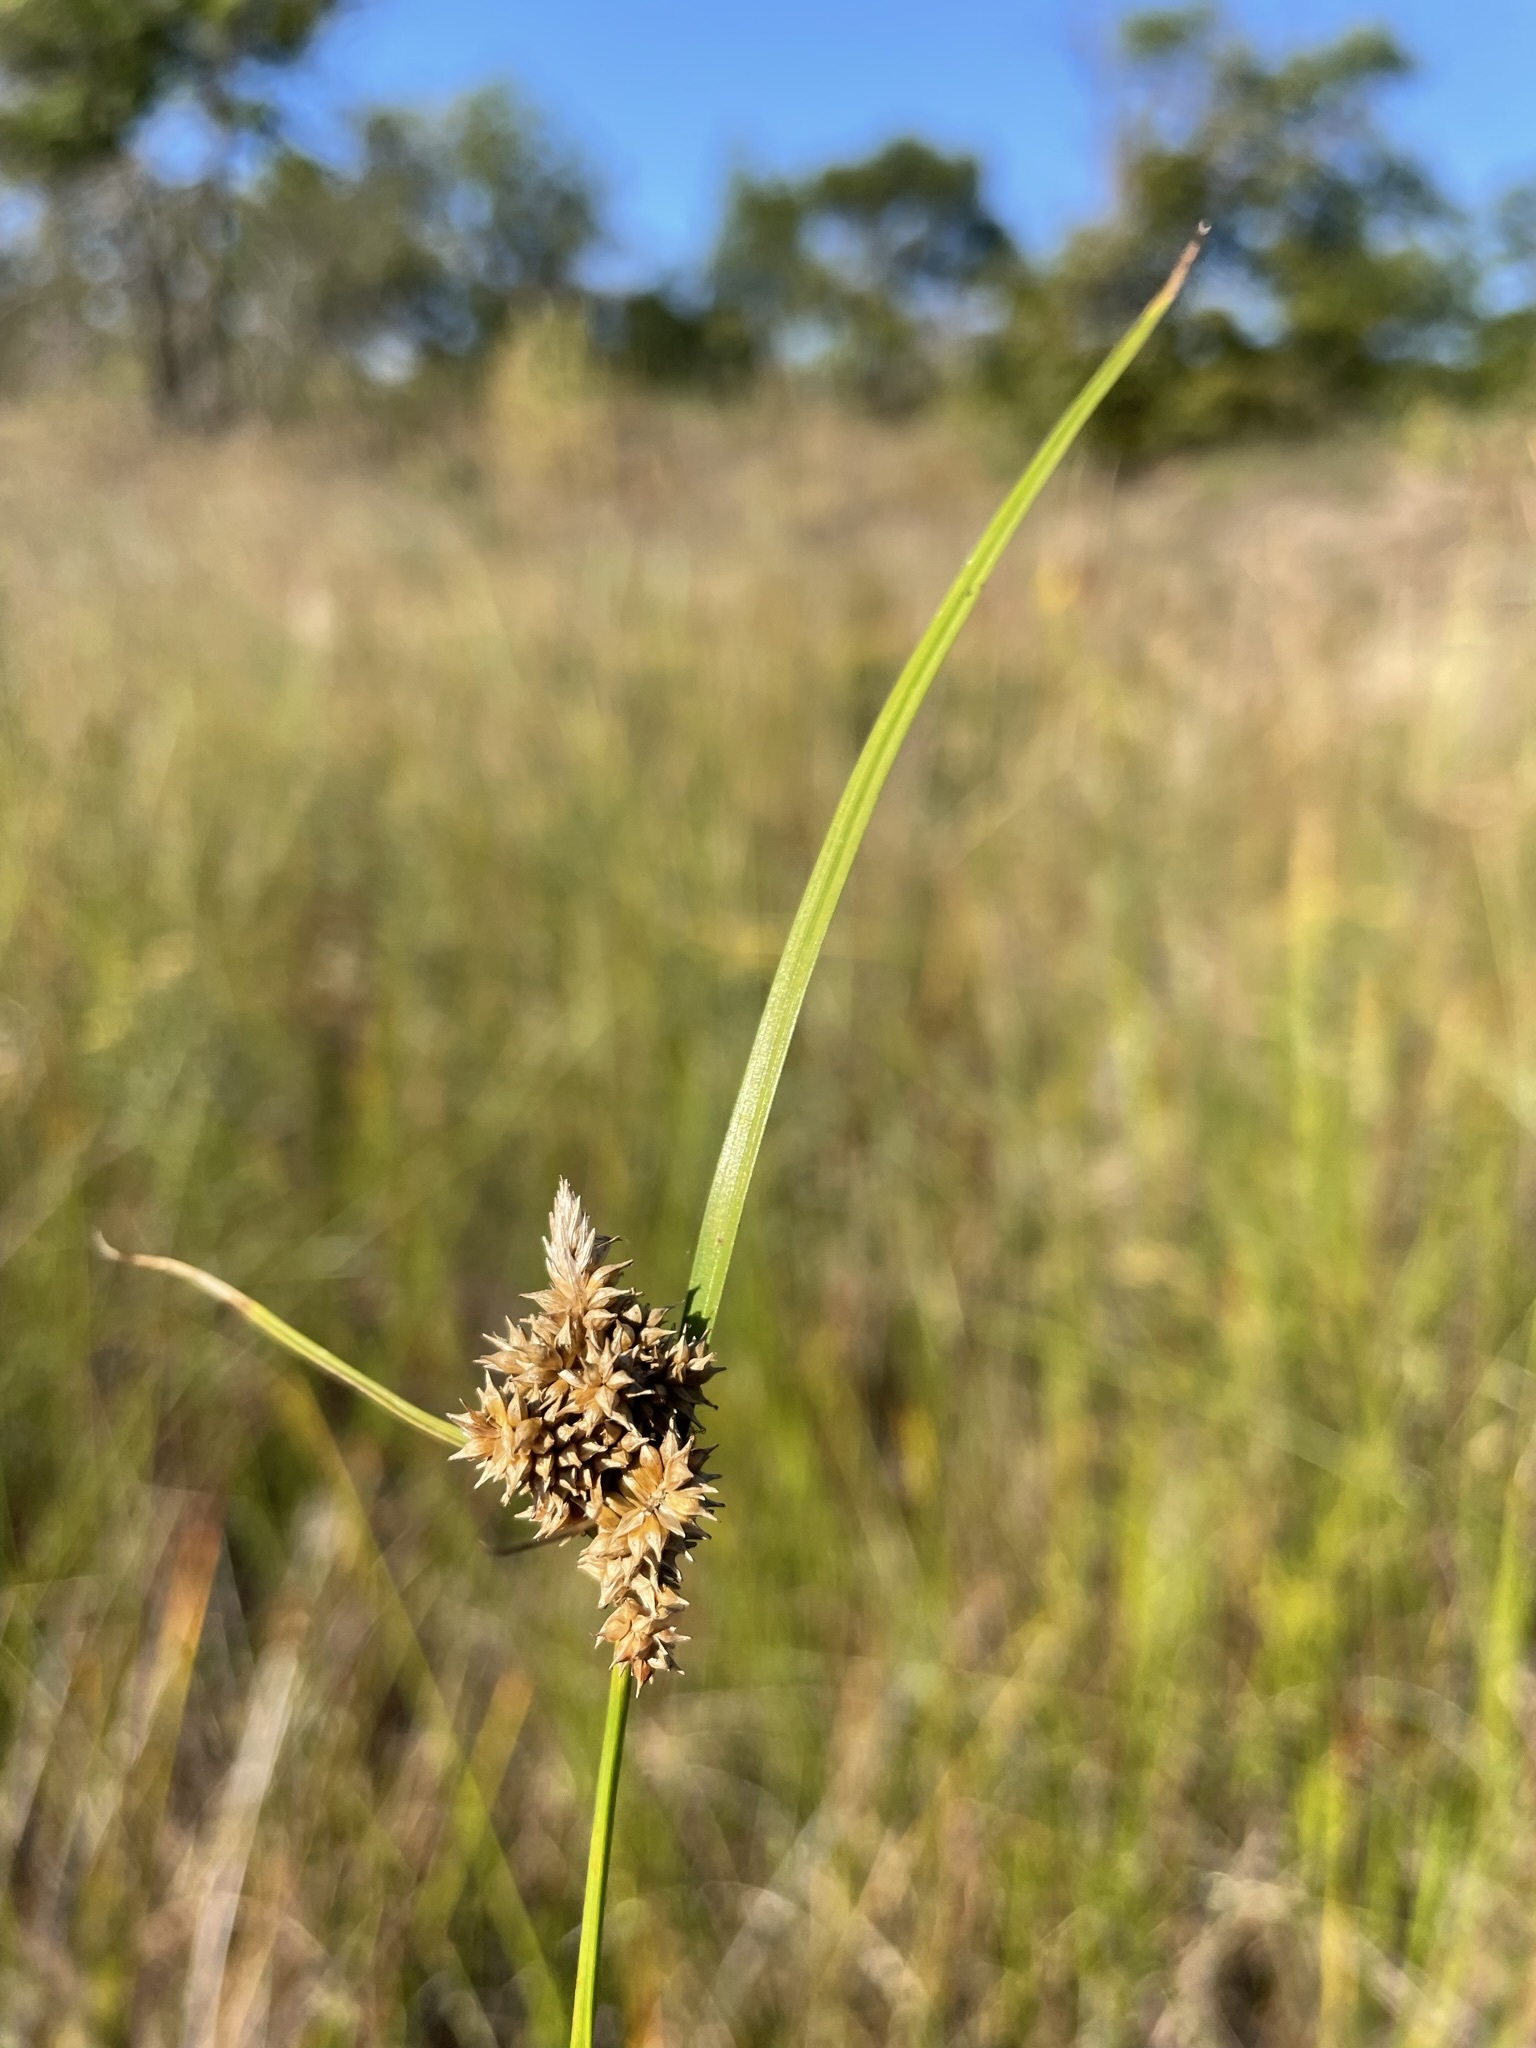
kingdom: Plantae
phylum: Tracheophyta
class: Liliopsida
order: Poales
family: Cyperaceae
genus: Carex
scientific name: Carex
